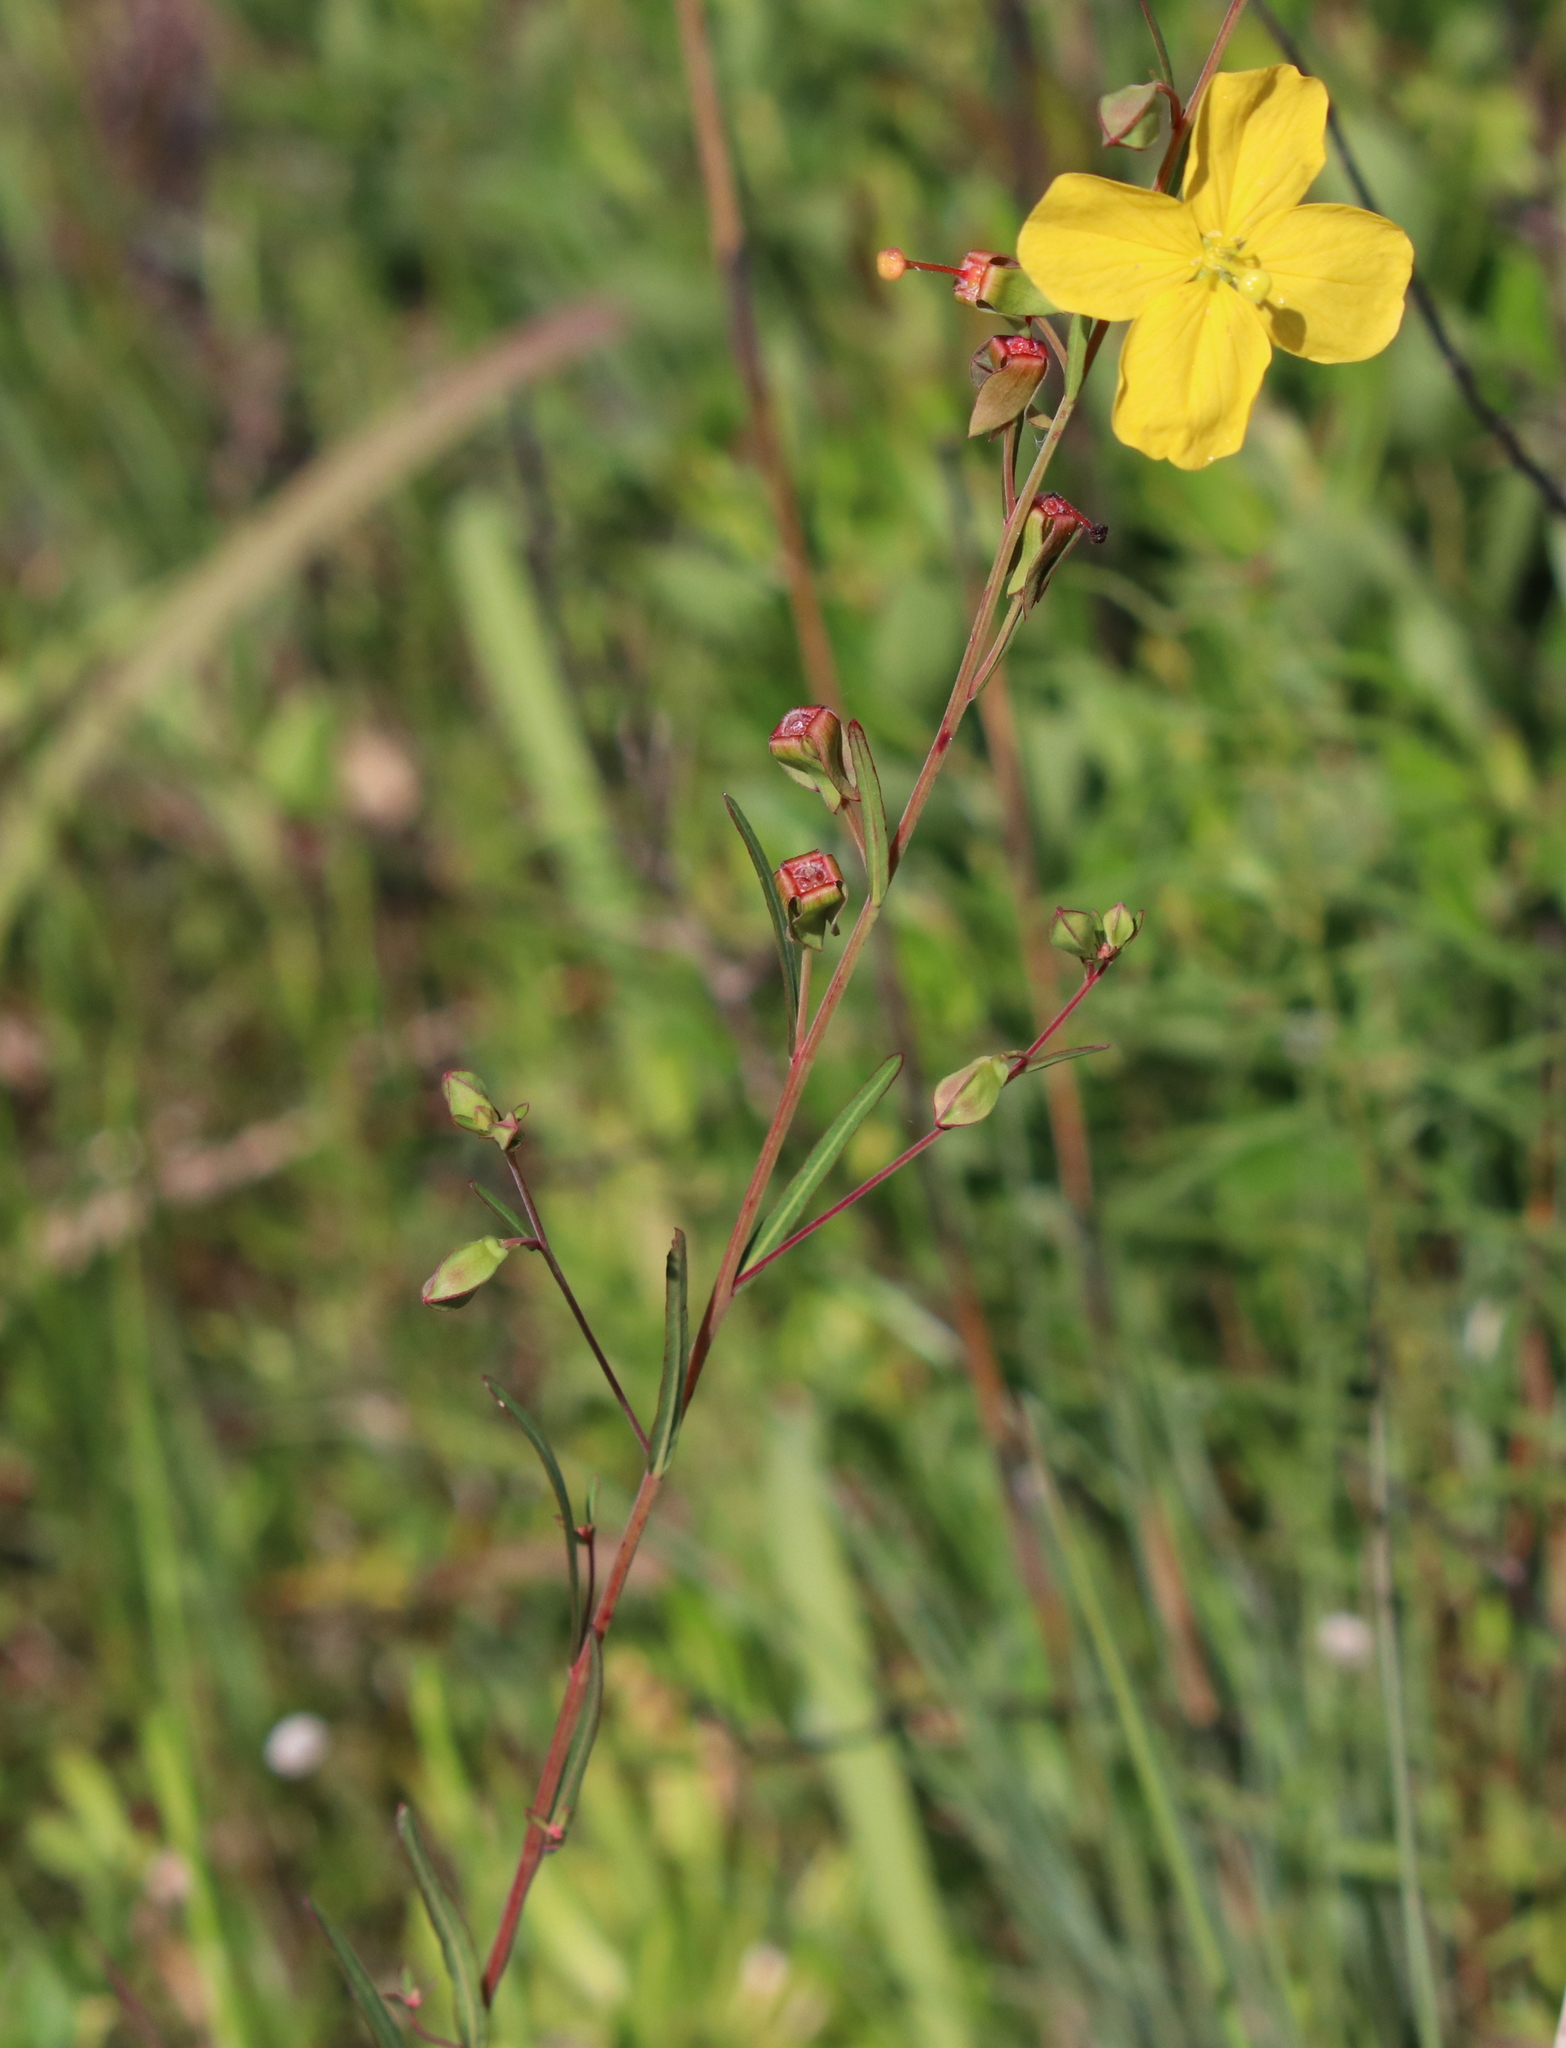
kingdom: Plantae
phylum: Tracheophyta
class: Magnoliopsida
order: Myrtales
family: Onagraceae
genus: Ludwigia
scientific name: Ludwigia virgata
